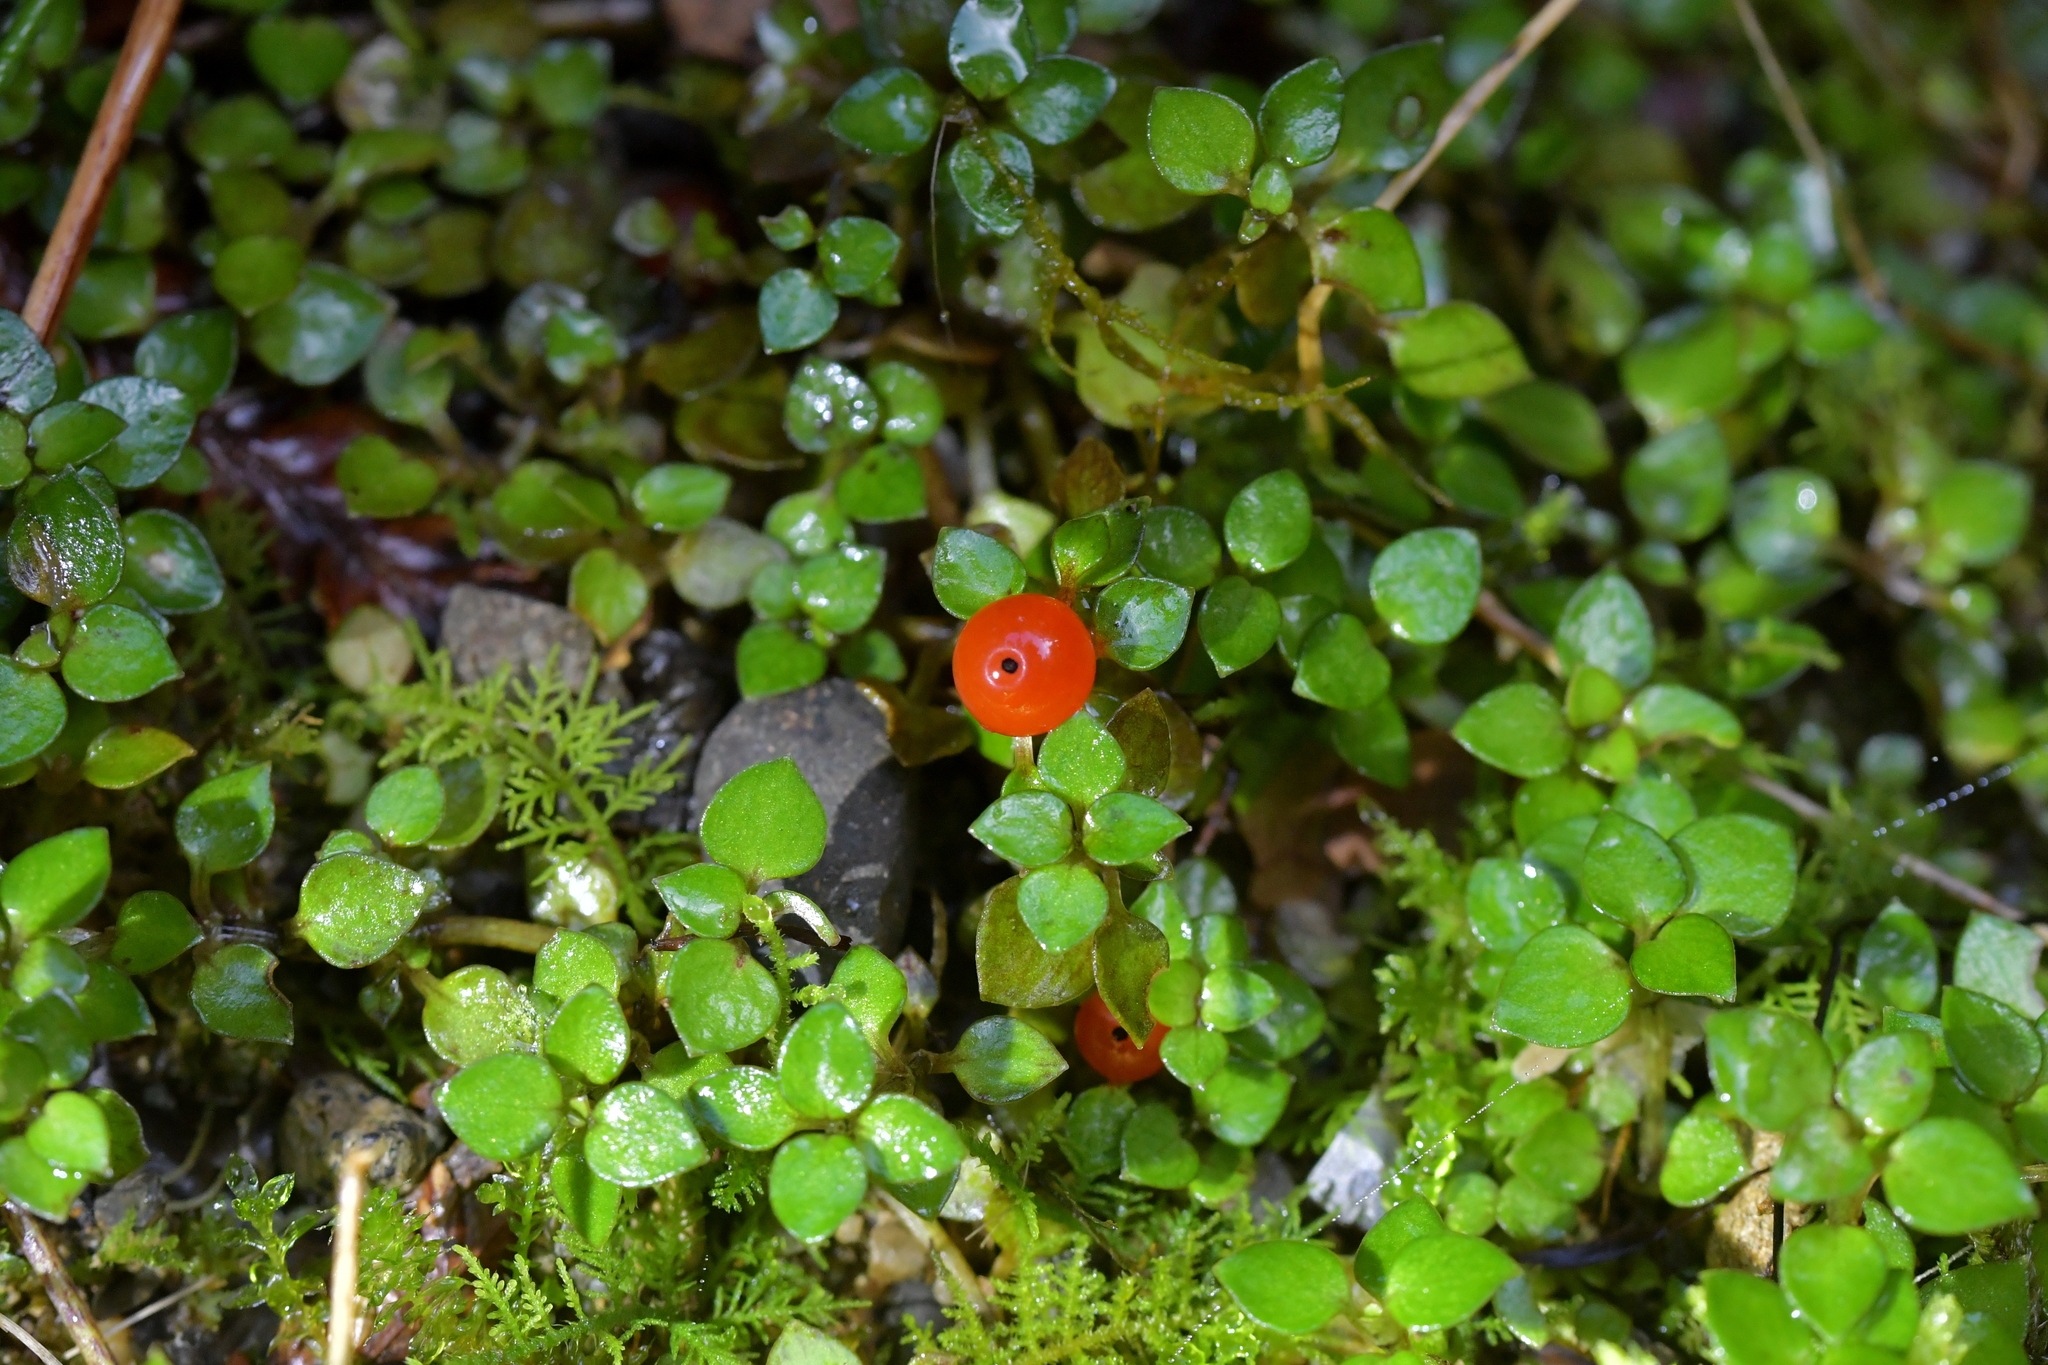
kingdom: Plantae
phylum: Tracheophyta
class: Magnoliopsida
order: Gentianales
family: Rubiaceae
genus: Nertera
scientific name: Nertera granadensis
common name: Beadplant
